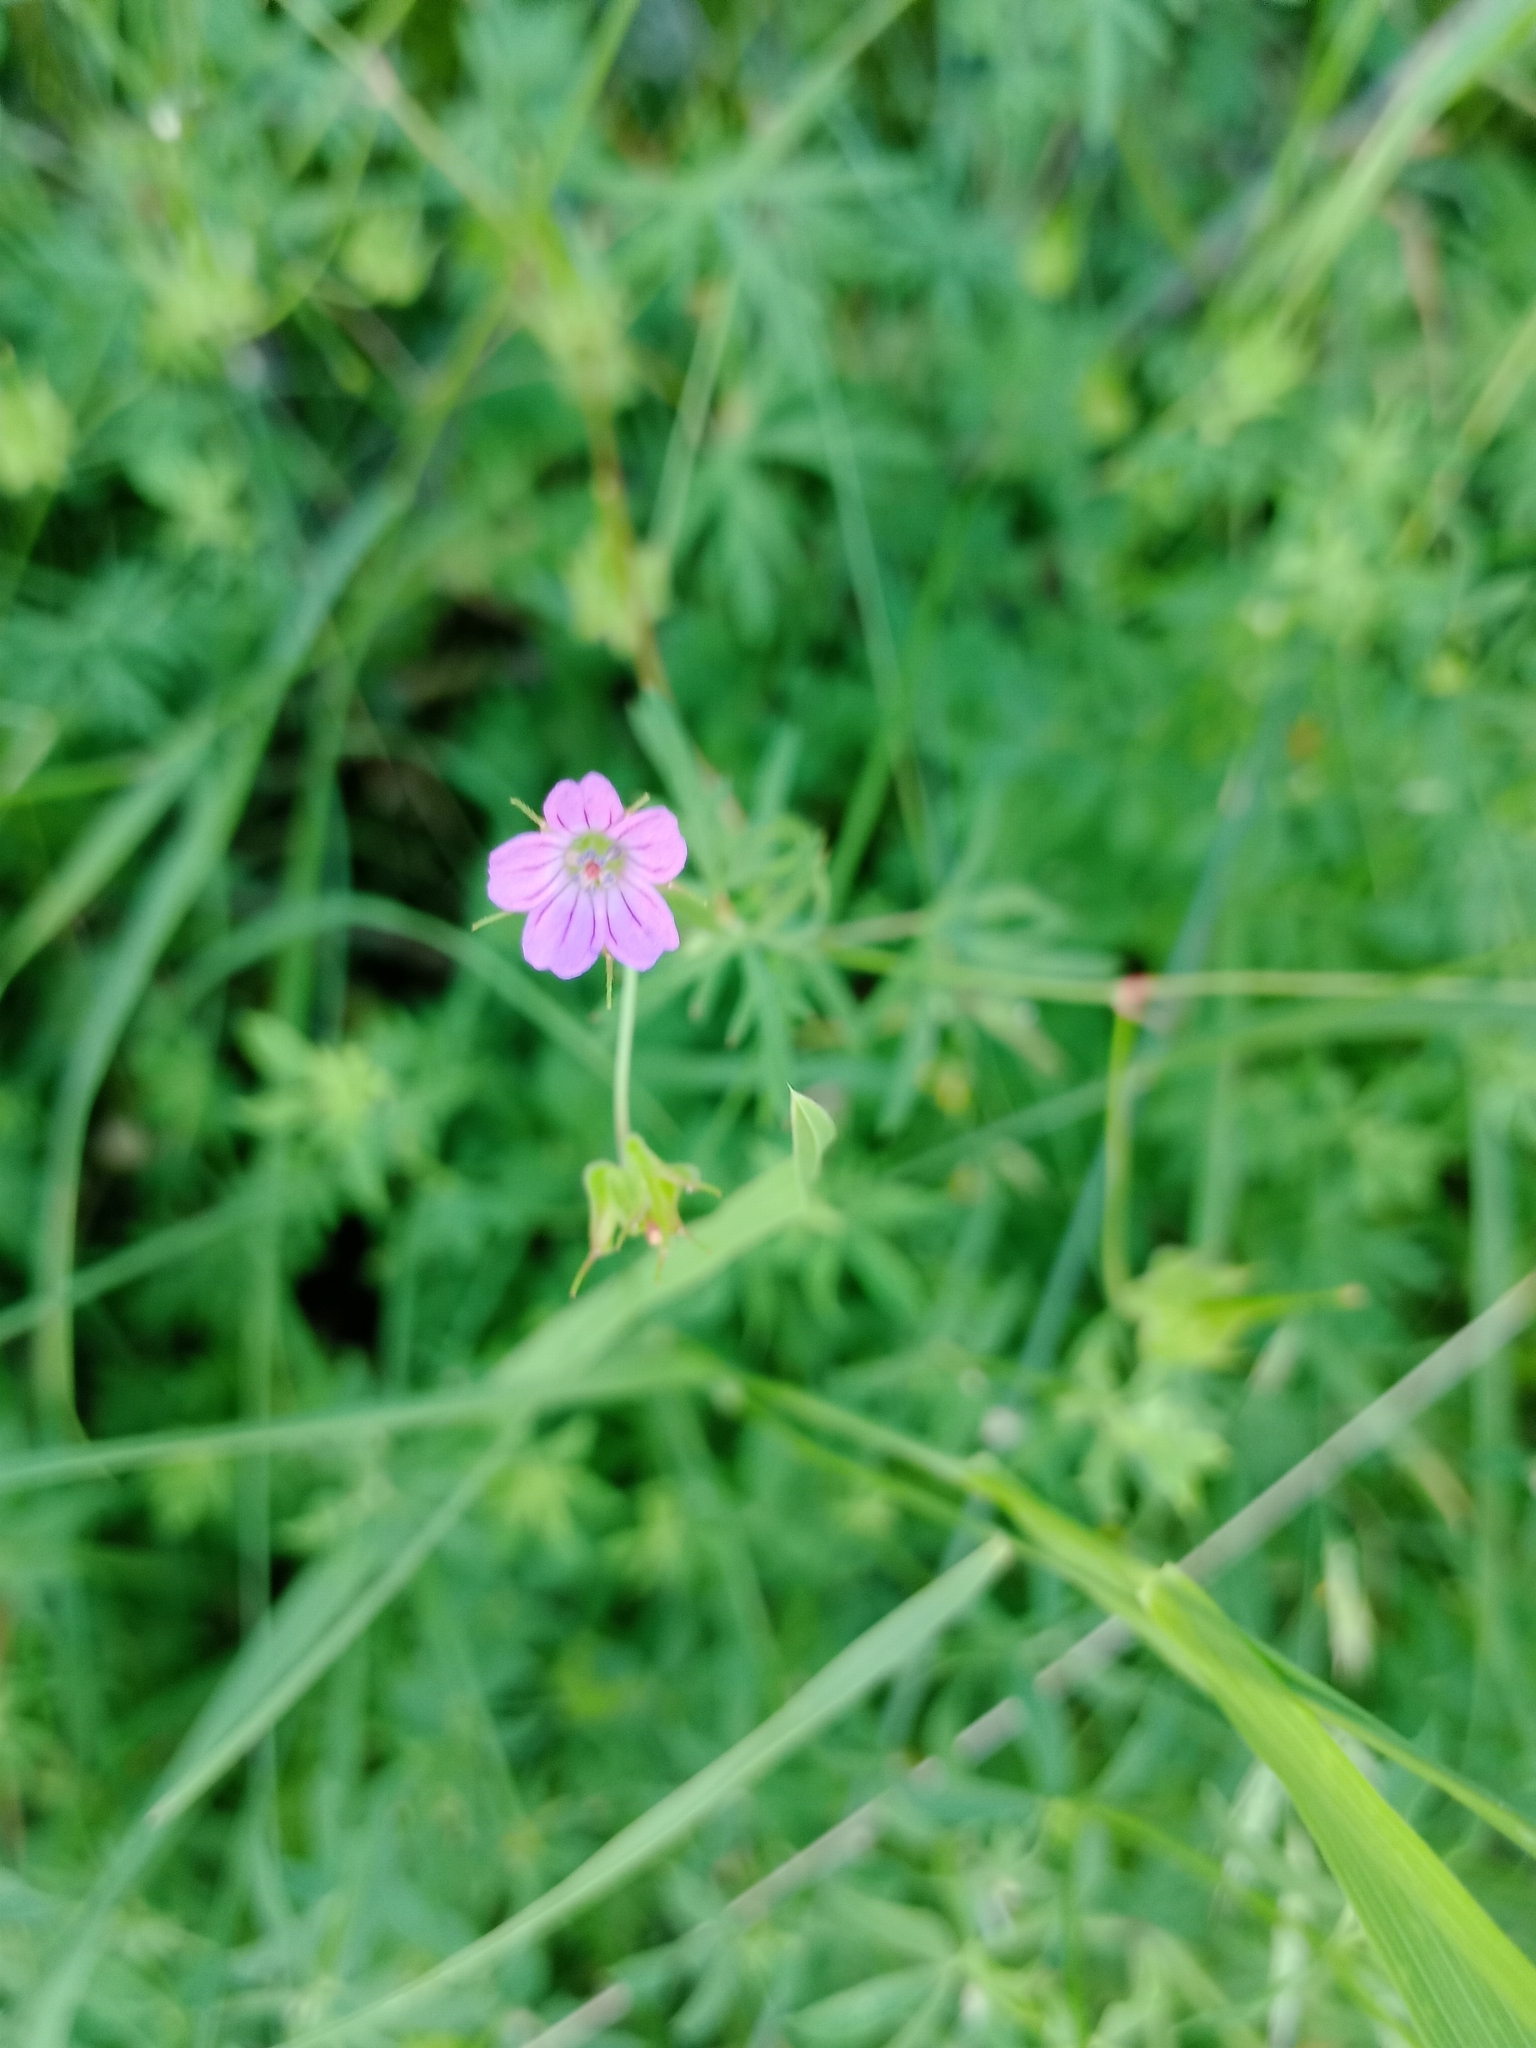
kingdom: Plantae
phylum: Tracheophyta
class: Magnoliopsida
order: Geraniales
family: Geraniaceae
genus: Geranium
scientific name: Geranium columbinum
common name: Long-stalked crane's-bill
